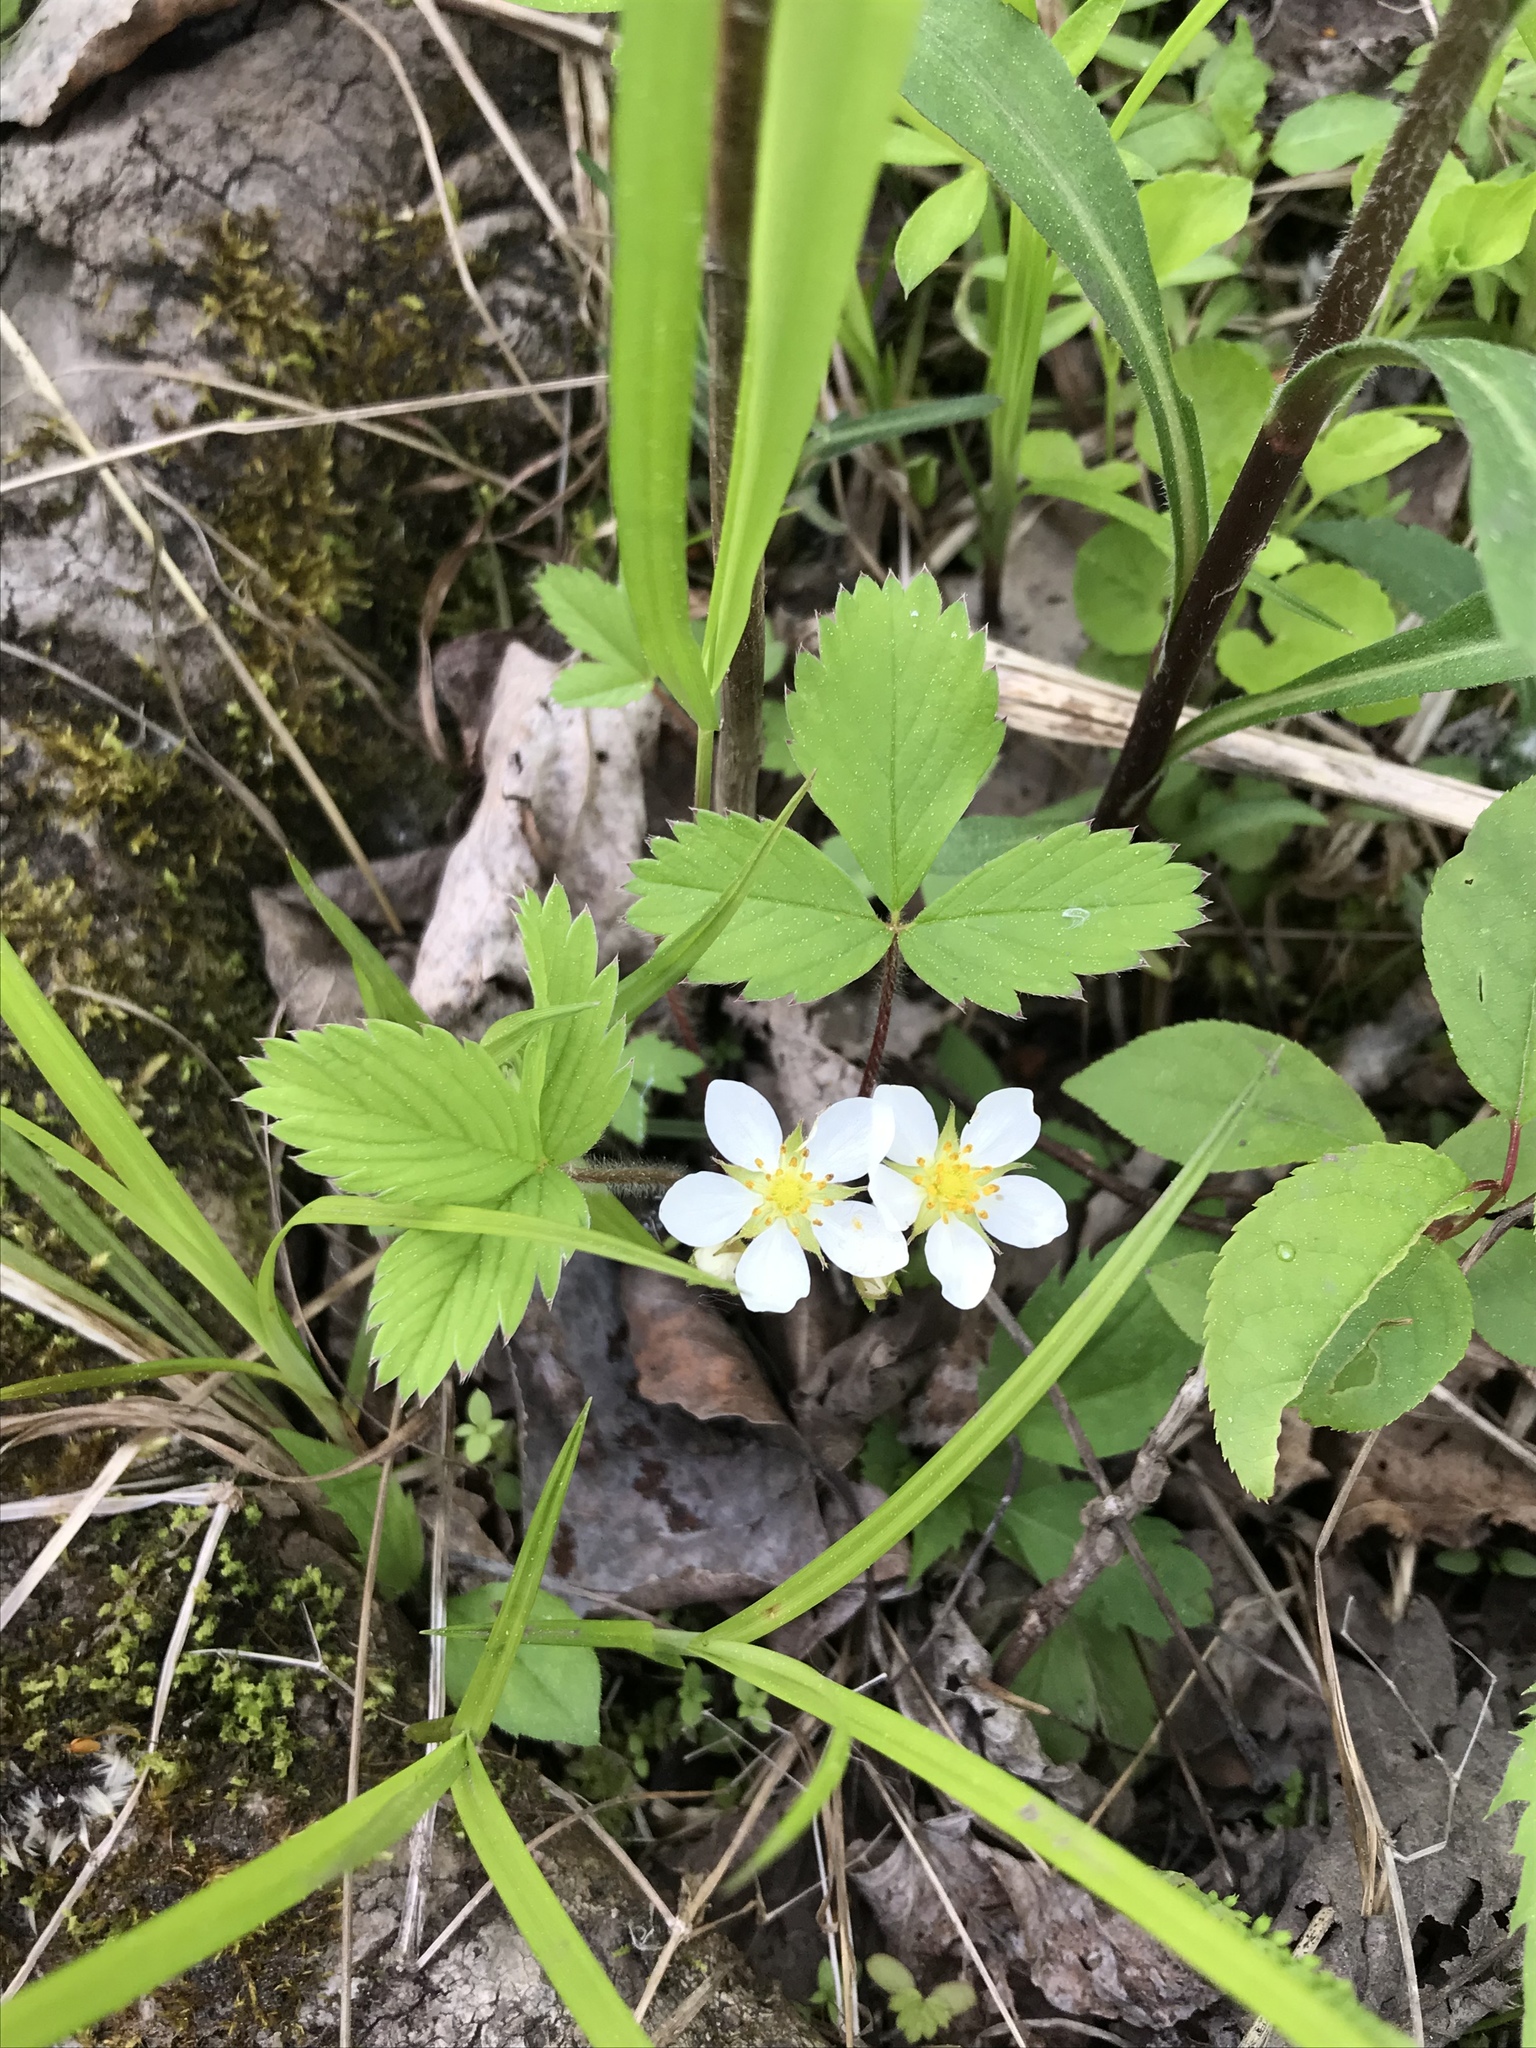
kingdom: Plantae
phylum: Tracheophyta
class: Magnoliopsida
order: Rosales
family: Rosaceae
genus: Fragaria
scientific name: Fragaria virginiana
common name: Thickleaved wild strawberry
